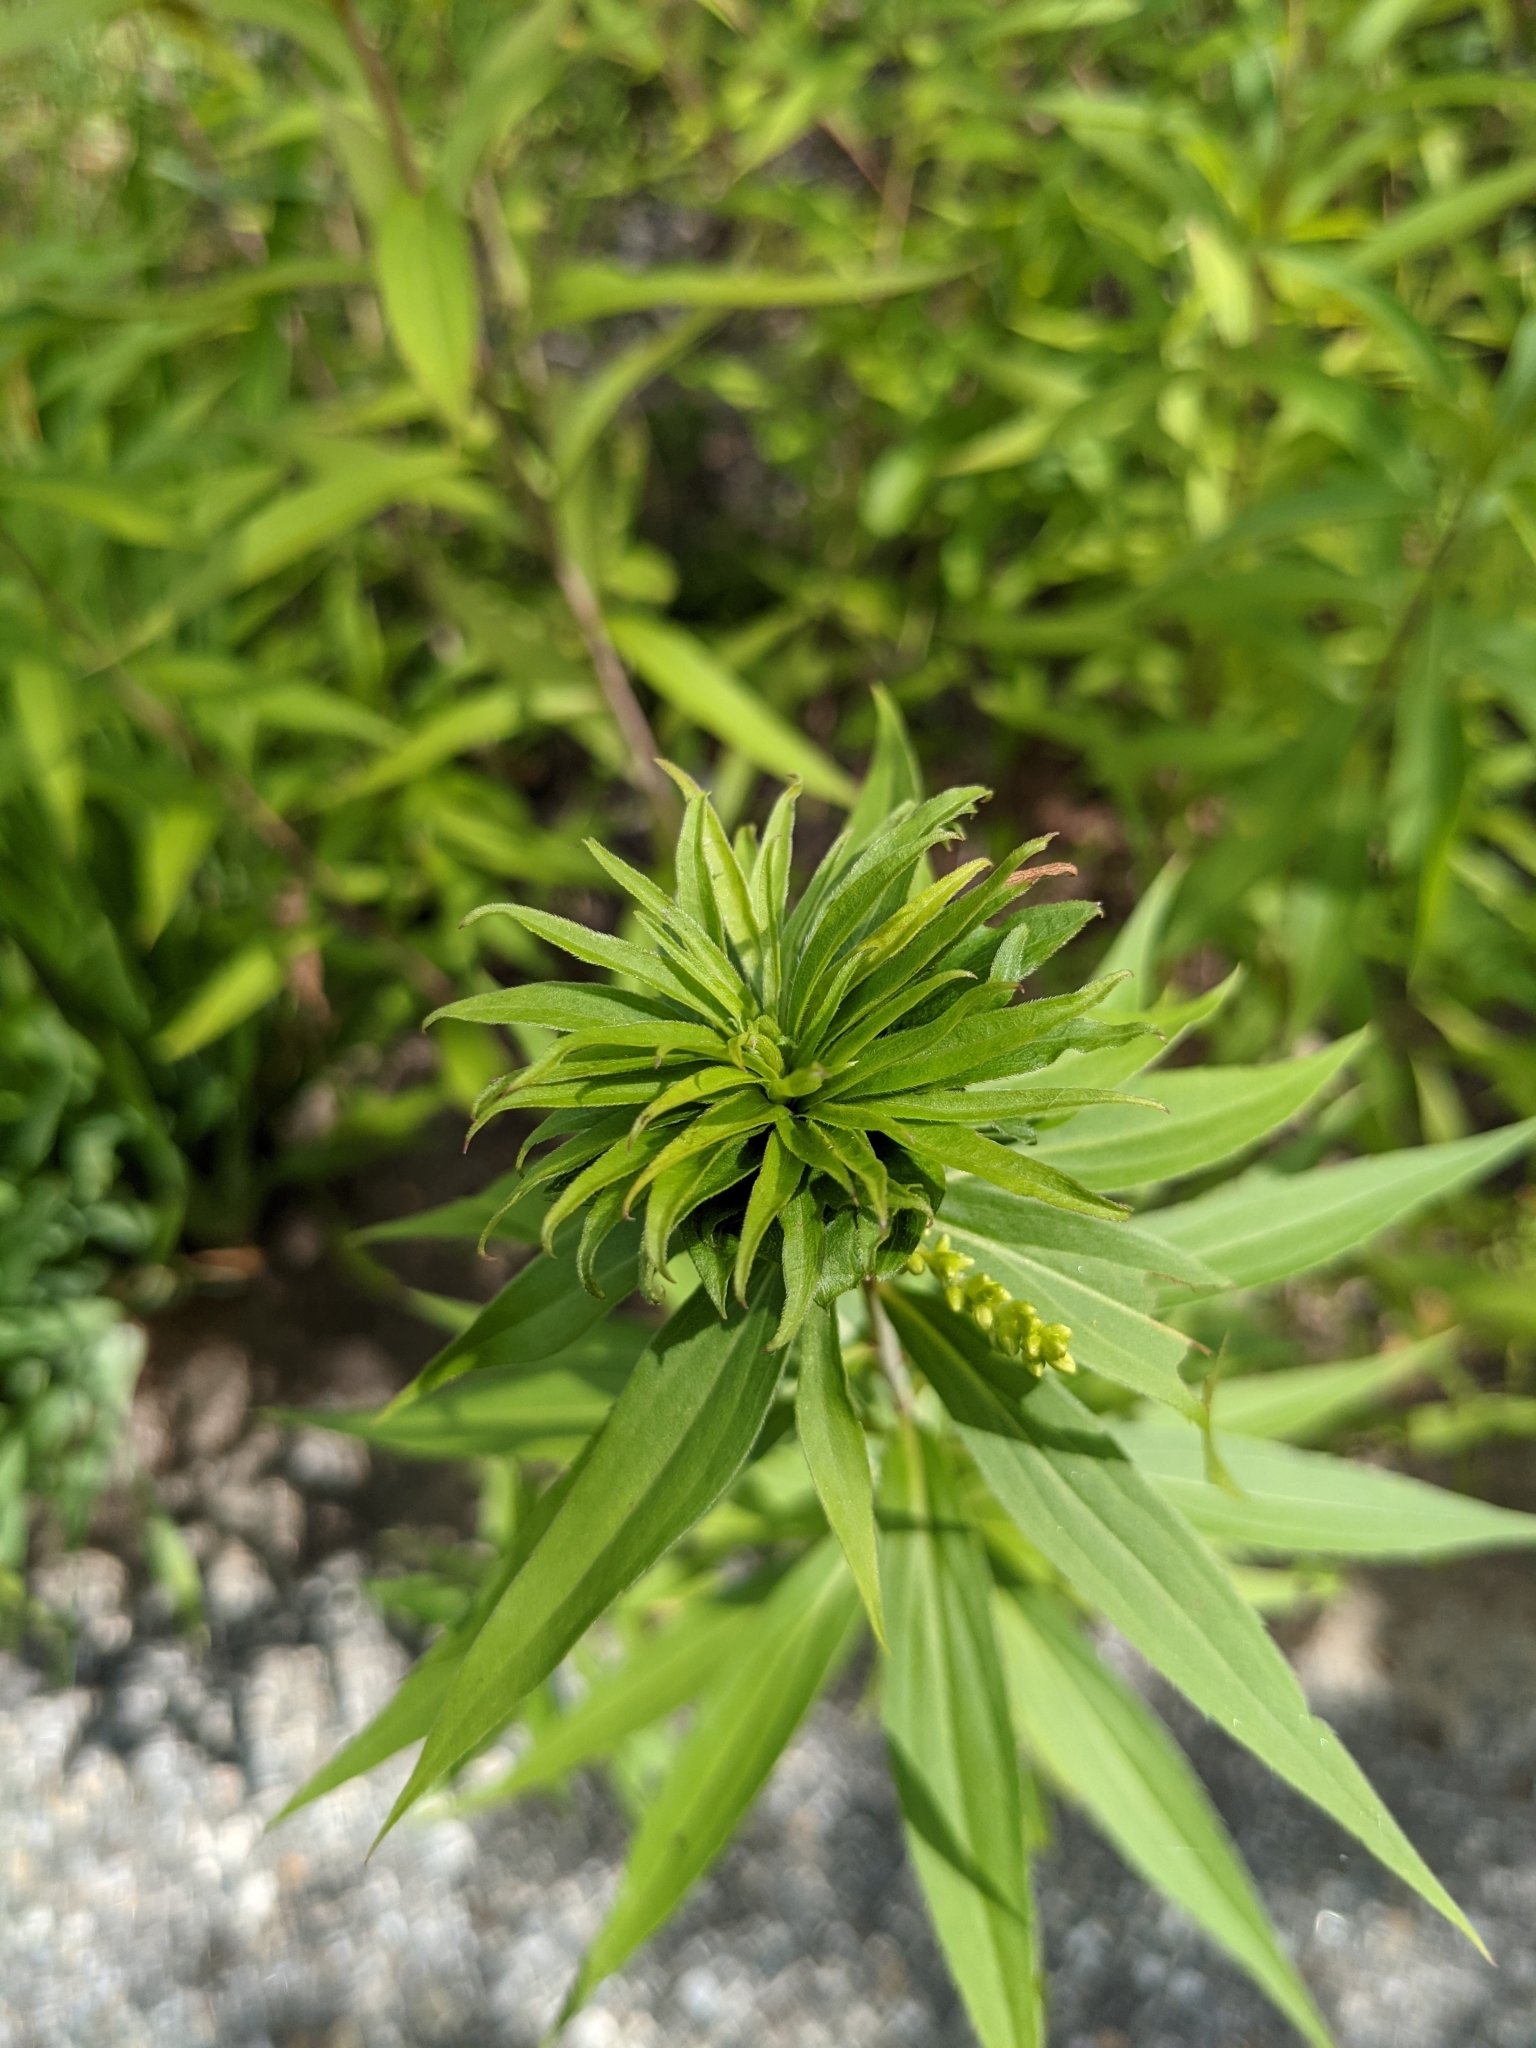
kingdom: Animalia
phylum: Arthropoda
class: Insecta
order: Diptera
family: Cecidomyiidae
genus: Rhopalomyia
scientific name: Rhopalomyia solidaginis
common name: Goldenrod bunch gall midge
